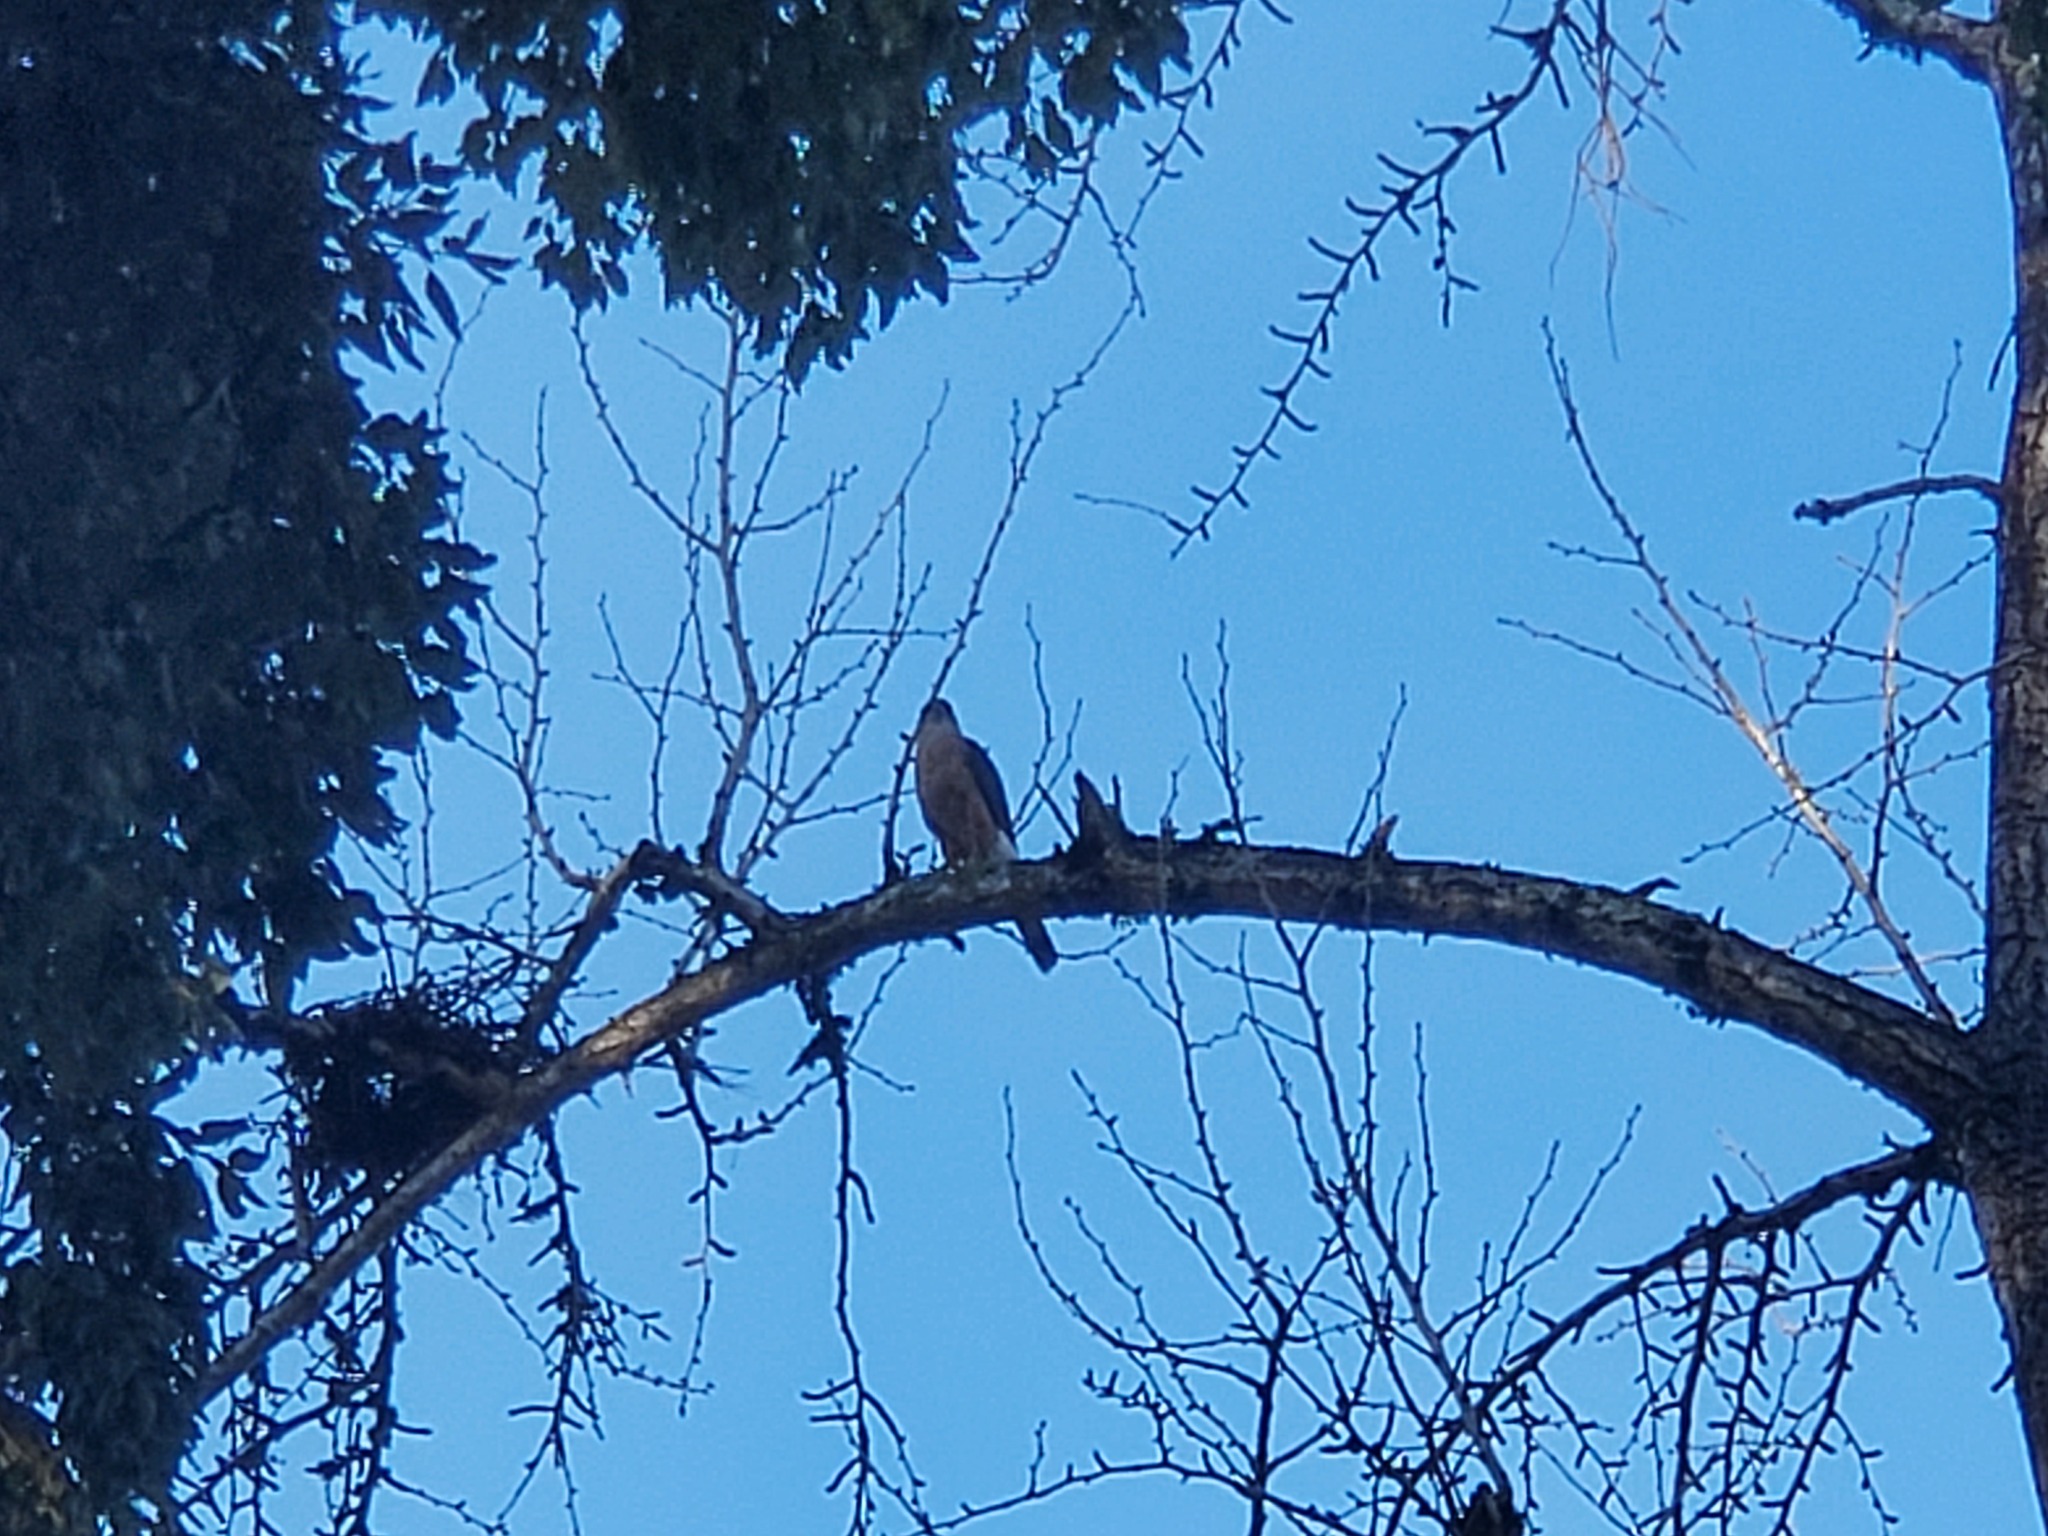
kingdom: Animalia
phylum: Chordata
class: Aves
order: Accipitriformes
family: Accipitridae
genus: Accipiter
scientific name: Accipiter cooperii
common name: Cooper's hawk
